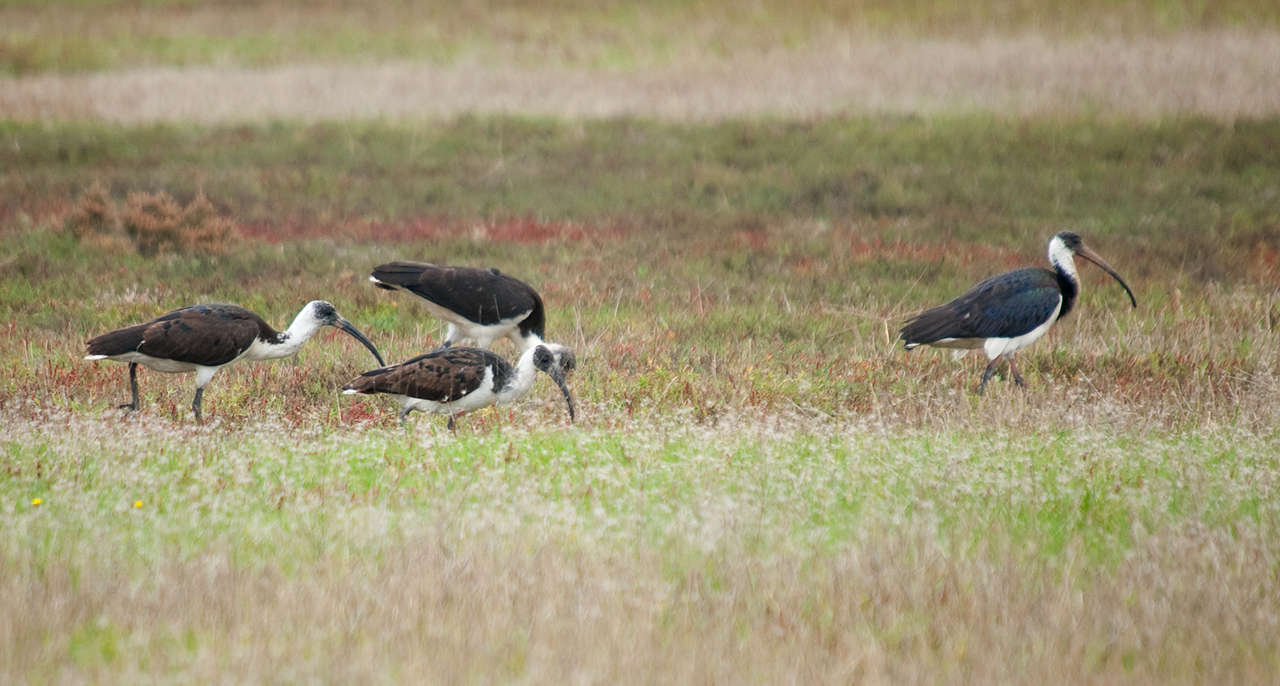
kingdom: Animalia
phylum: Chordata
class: Aves
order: Pelecaniformes
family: Threskiornithidae
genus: Threskiornis
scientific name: Threskiornis spinicollis
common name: Straw-necked ibis
